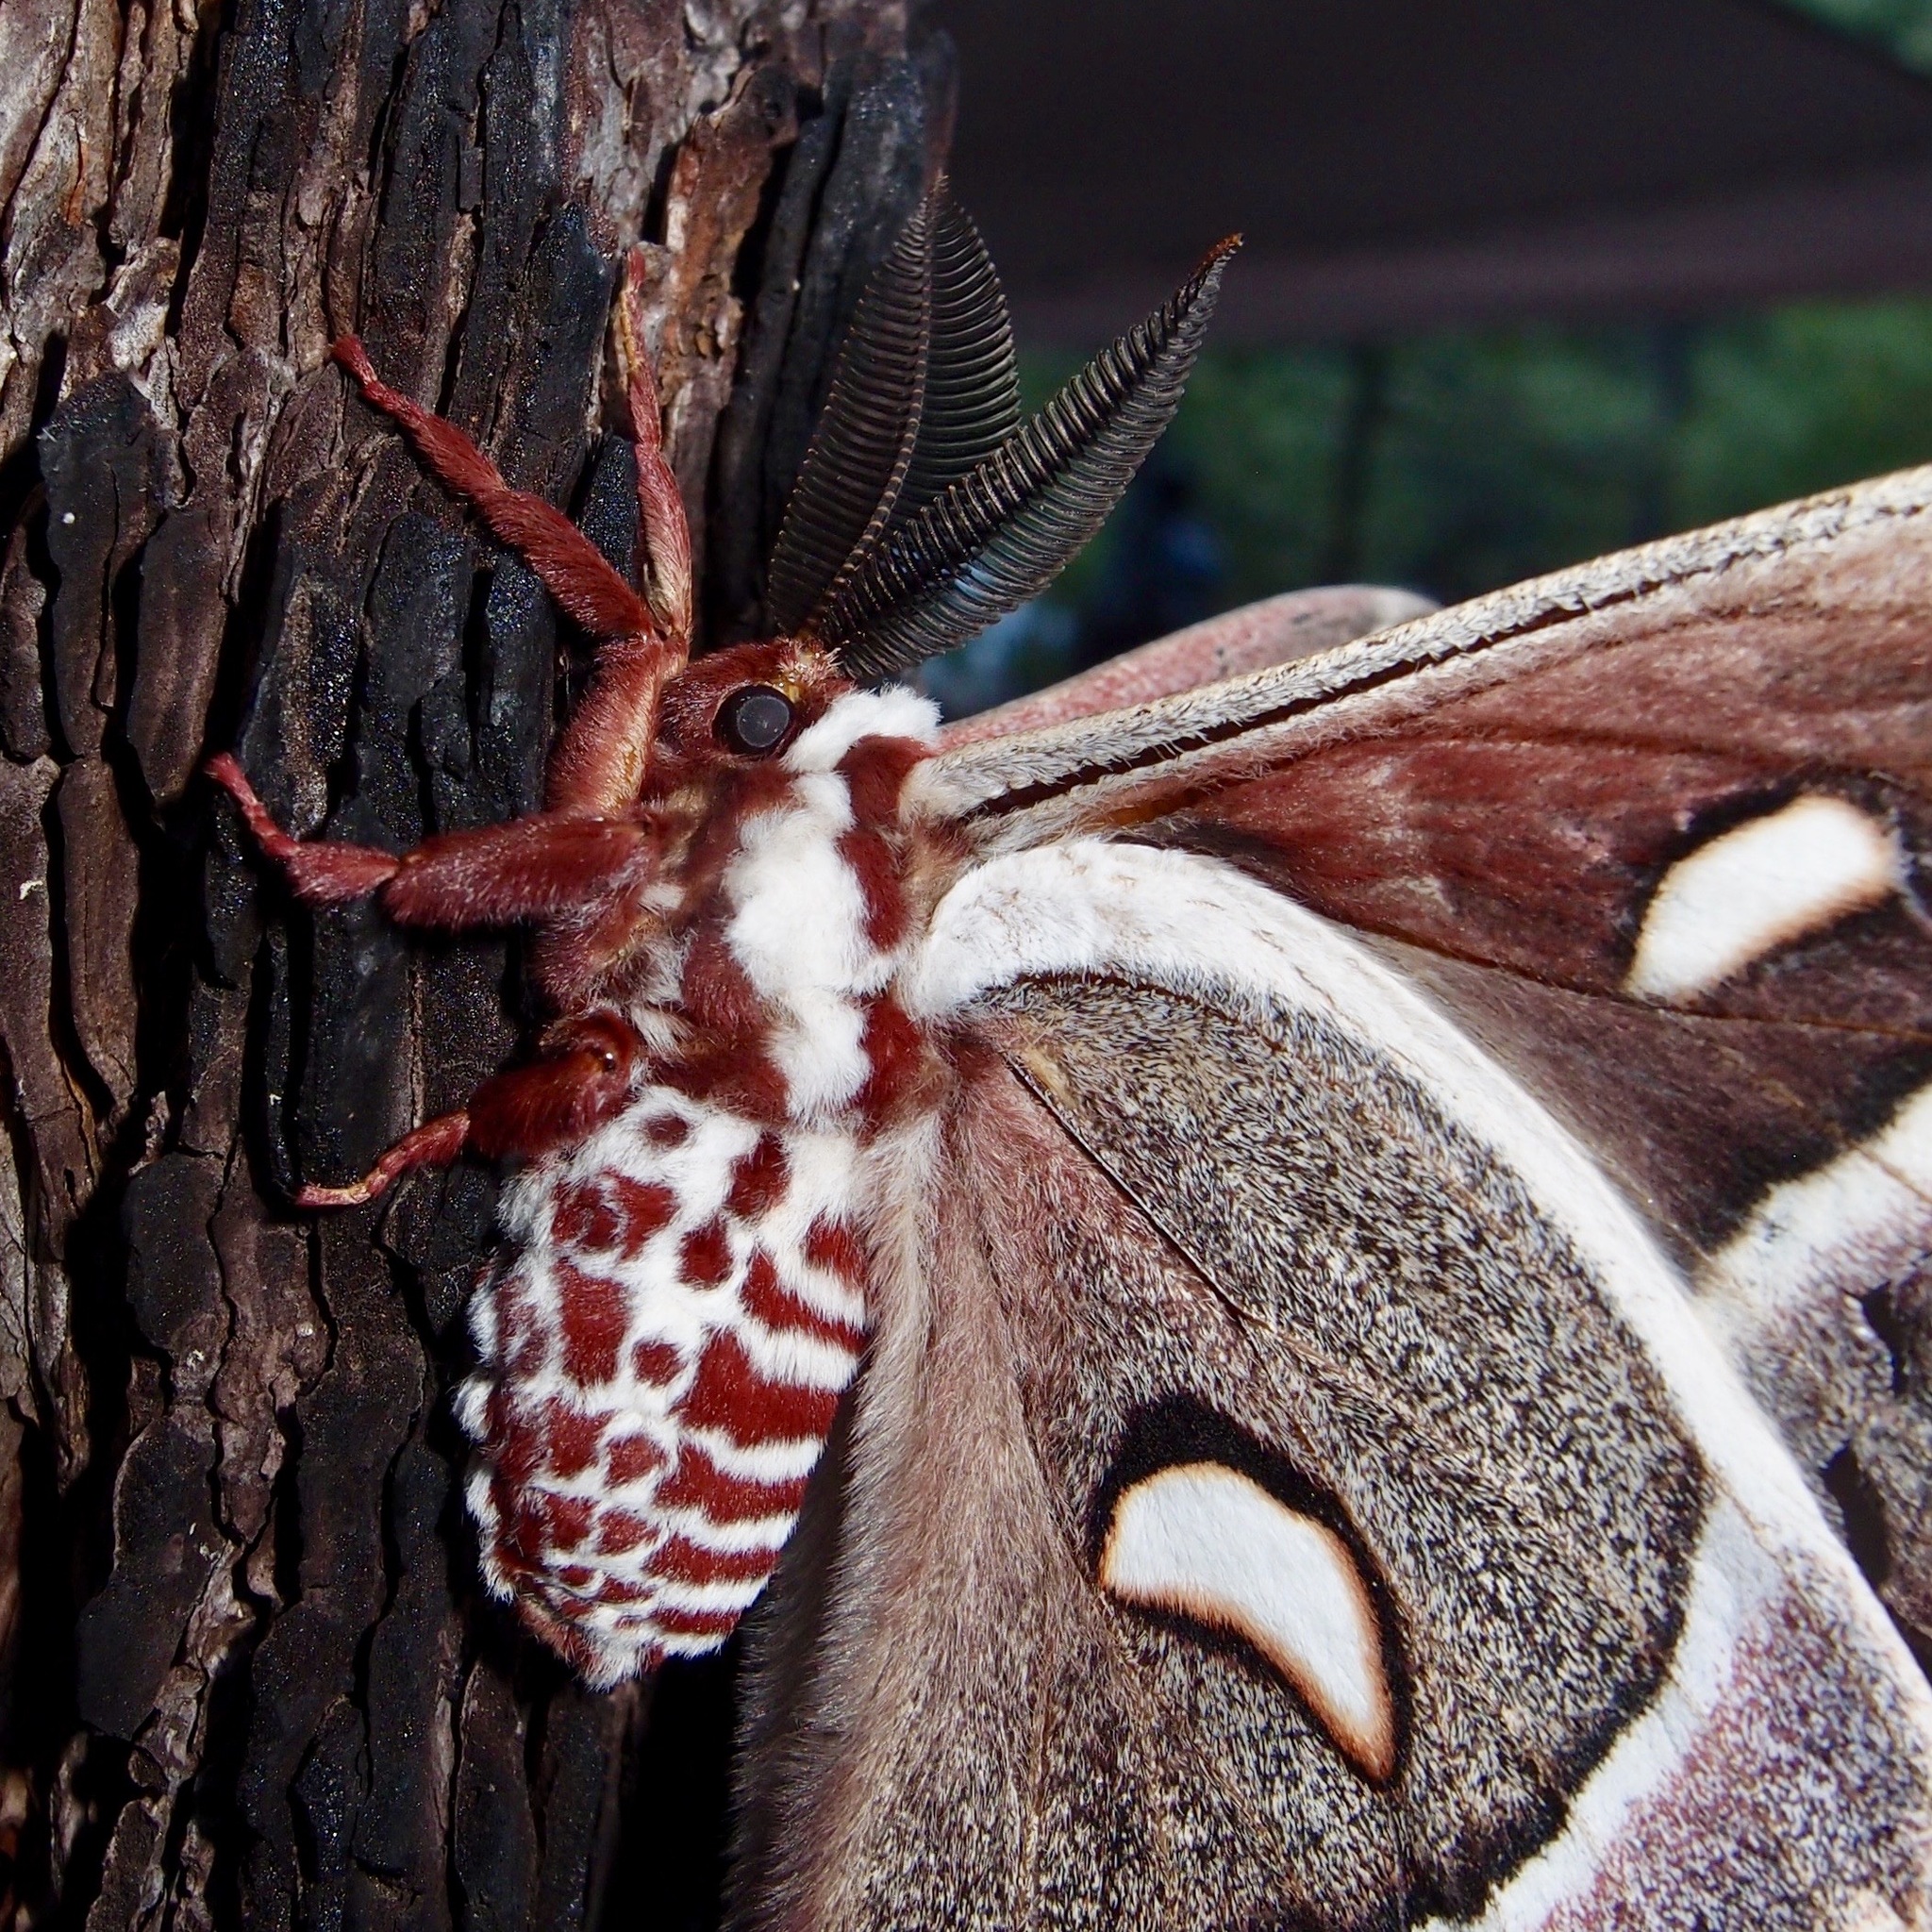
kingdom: Animalia
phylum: Arthropoda
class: Insecta
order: Lepidoptera
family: Saturniidae
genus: Hyalophora
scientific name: Hyalophora gloveri
